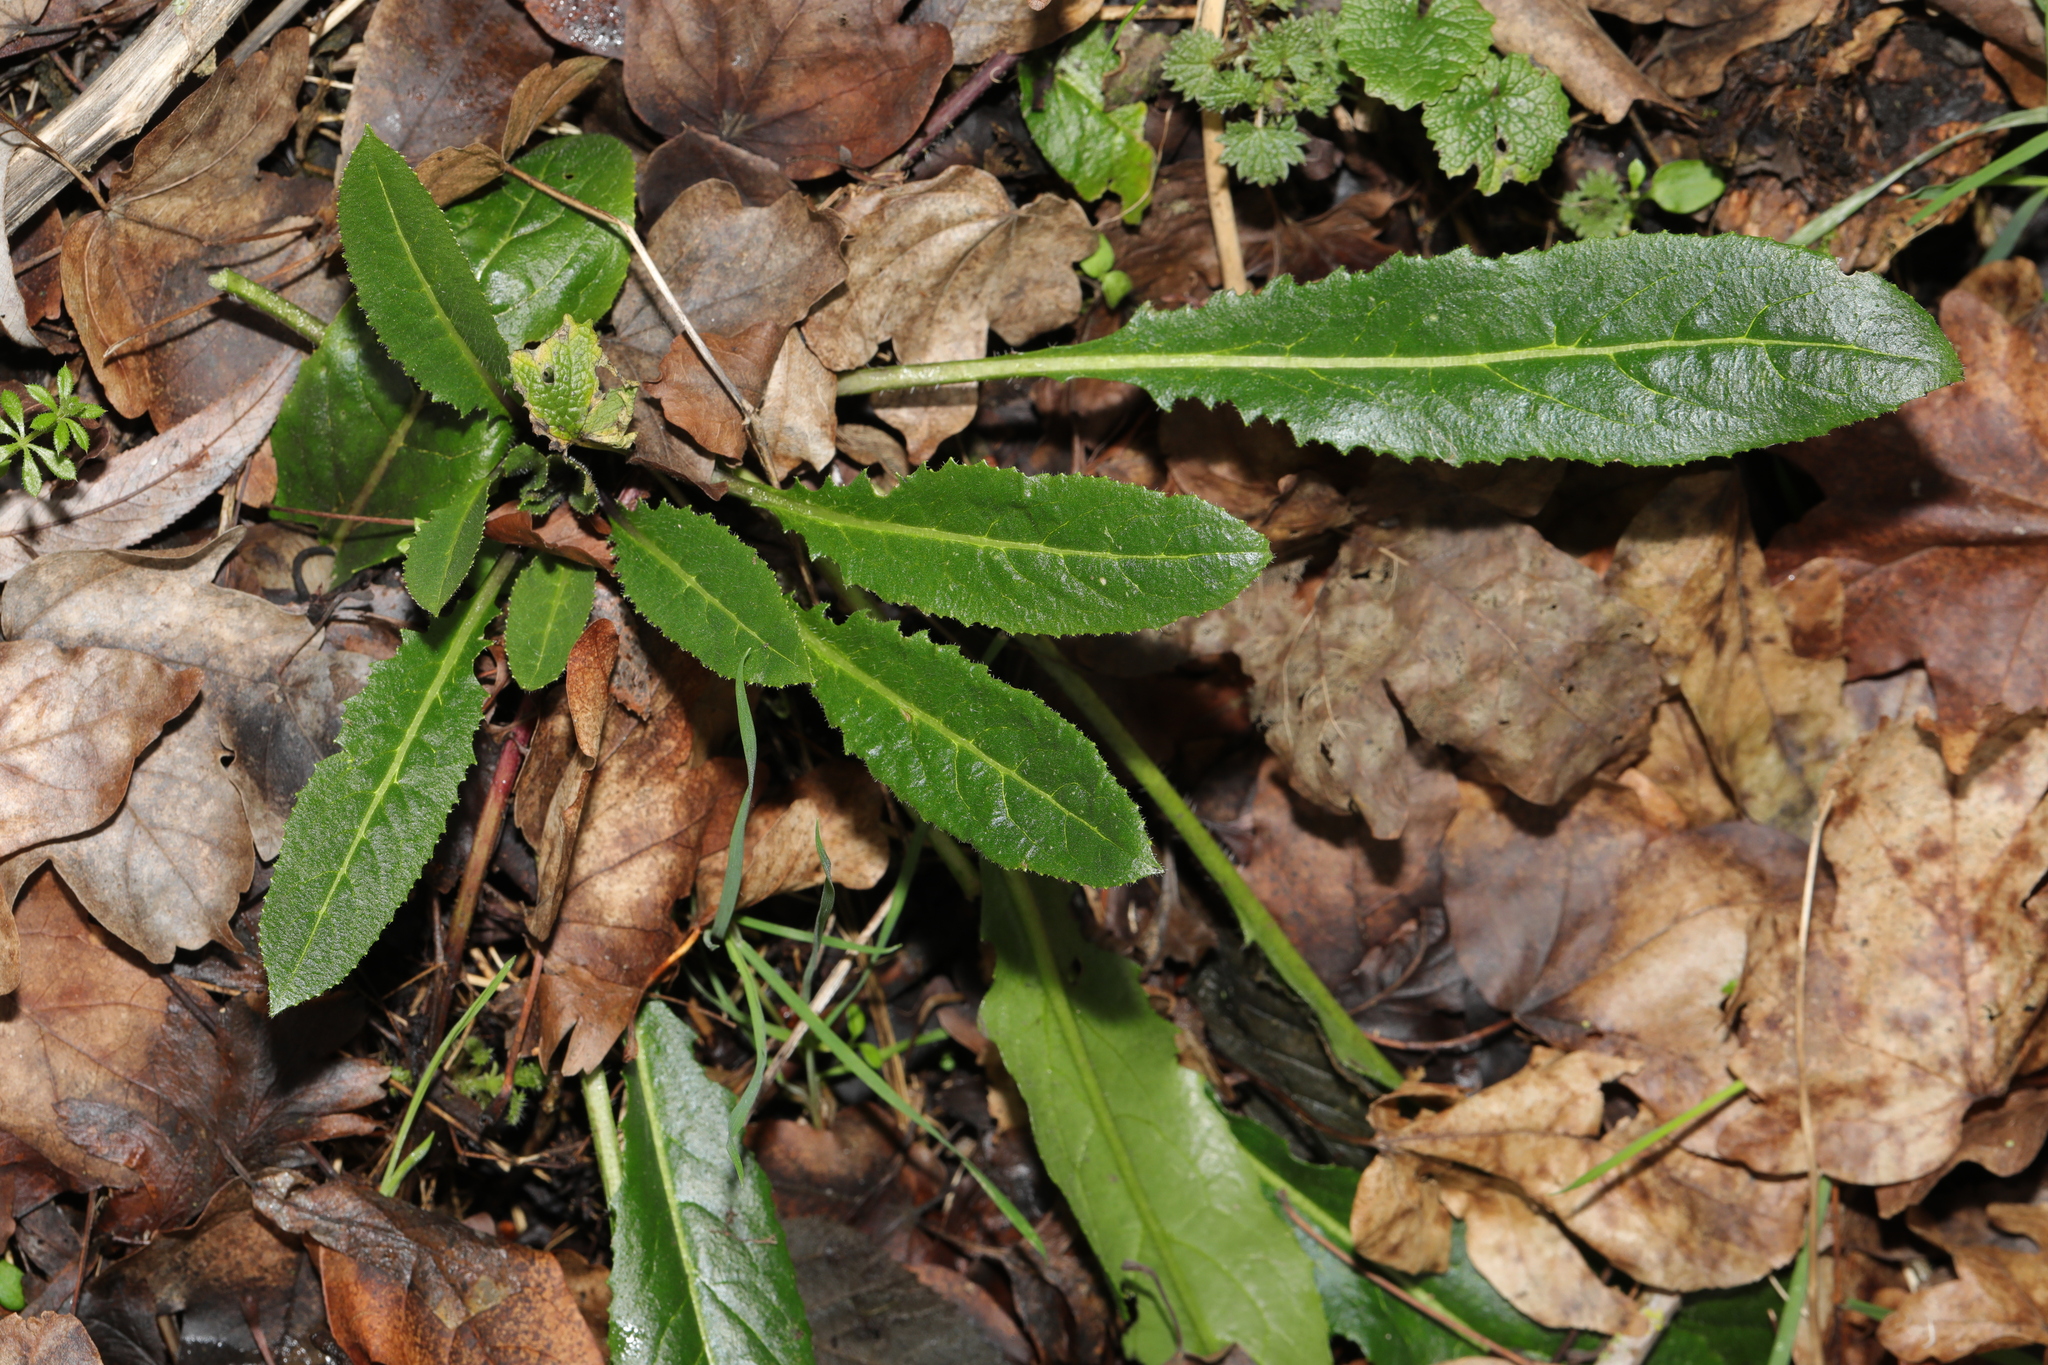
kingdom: Plantae
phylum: Tracheophyta
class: Magnoliopsida
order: Brassicales
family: Brassicaceae
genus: Hesperis
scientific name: Hesperis matronalis
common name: Dame's-violet
